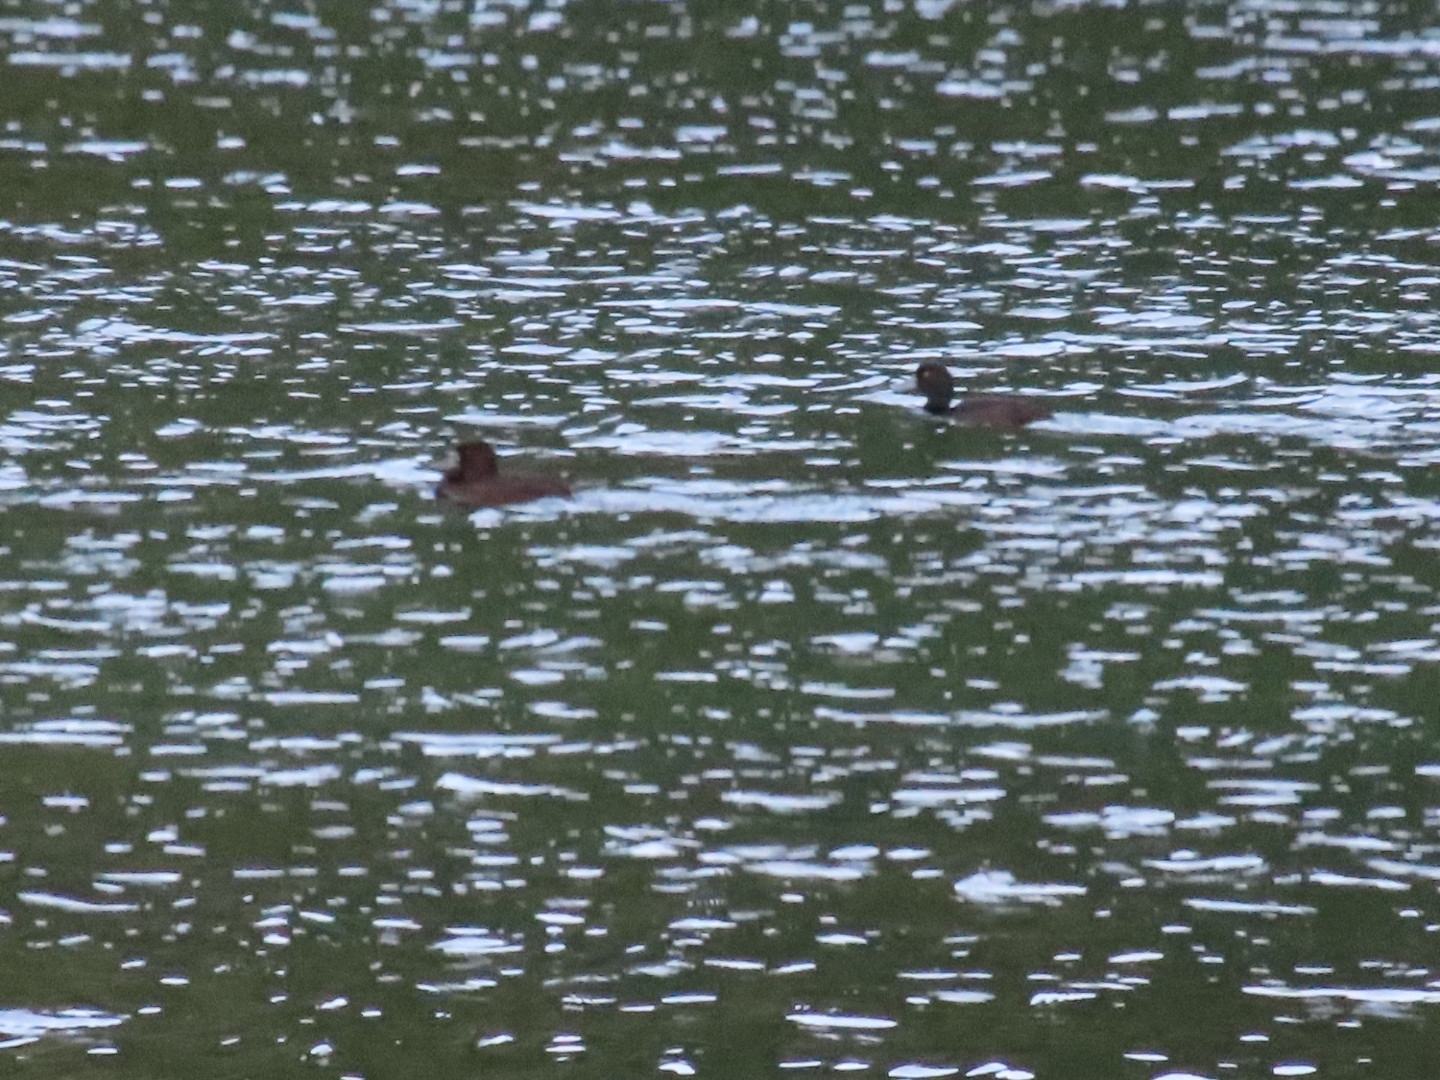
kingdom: Animalia
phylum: Chordata
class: Aves
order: Anseriformes
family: Anatidae
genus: Aythya
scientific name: Aythya novaeseelandiae
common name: New zealand scaup
